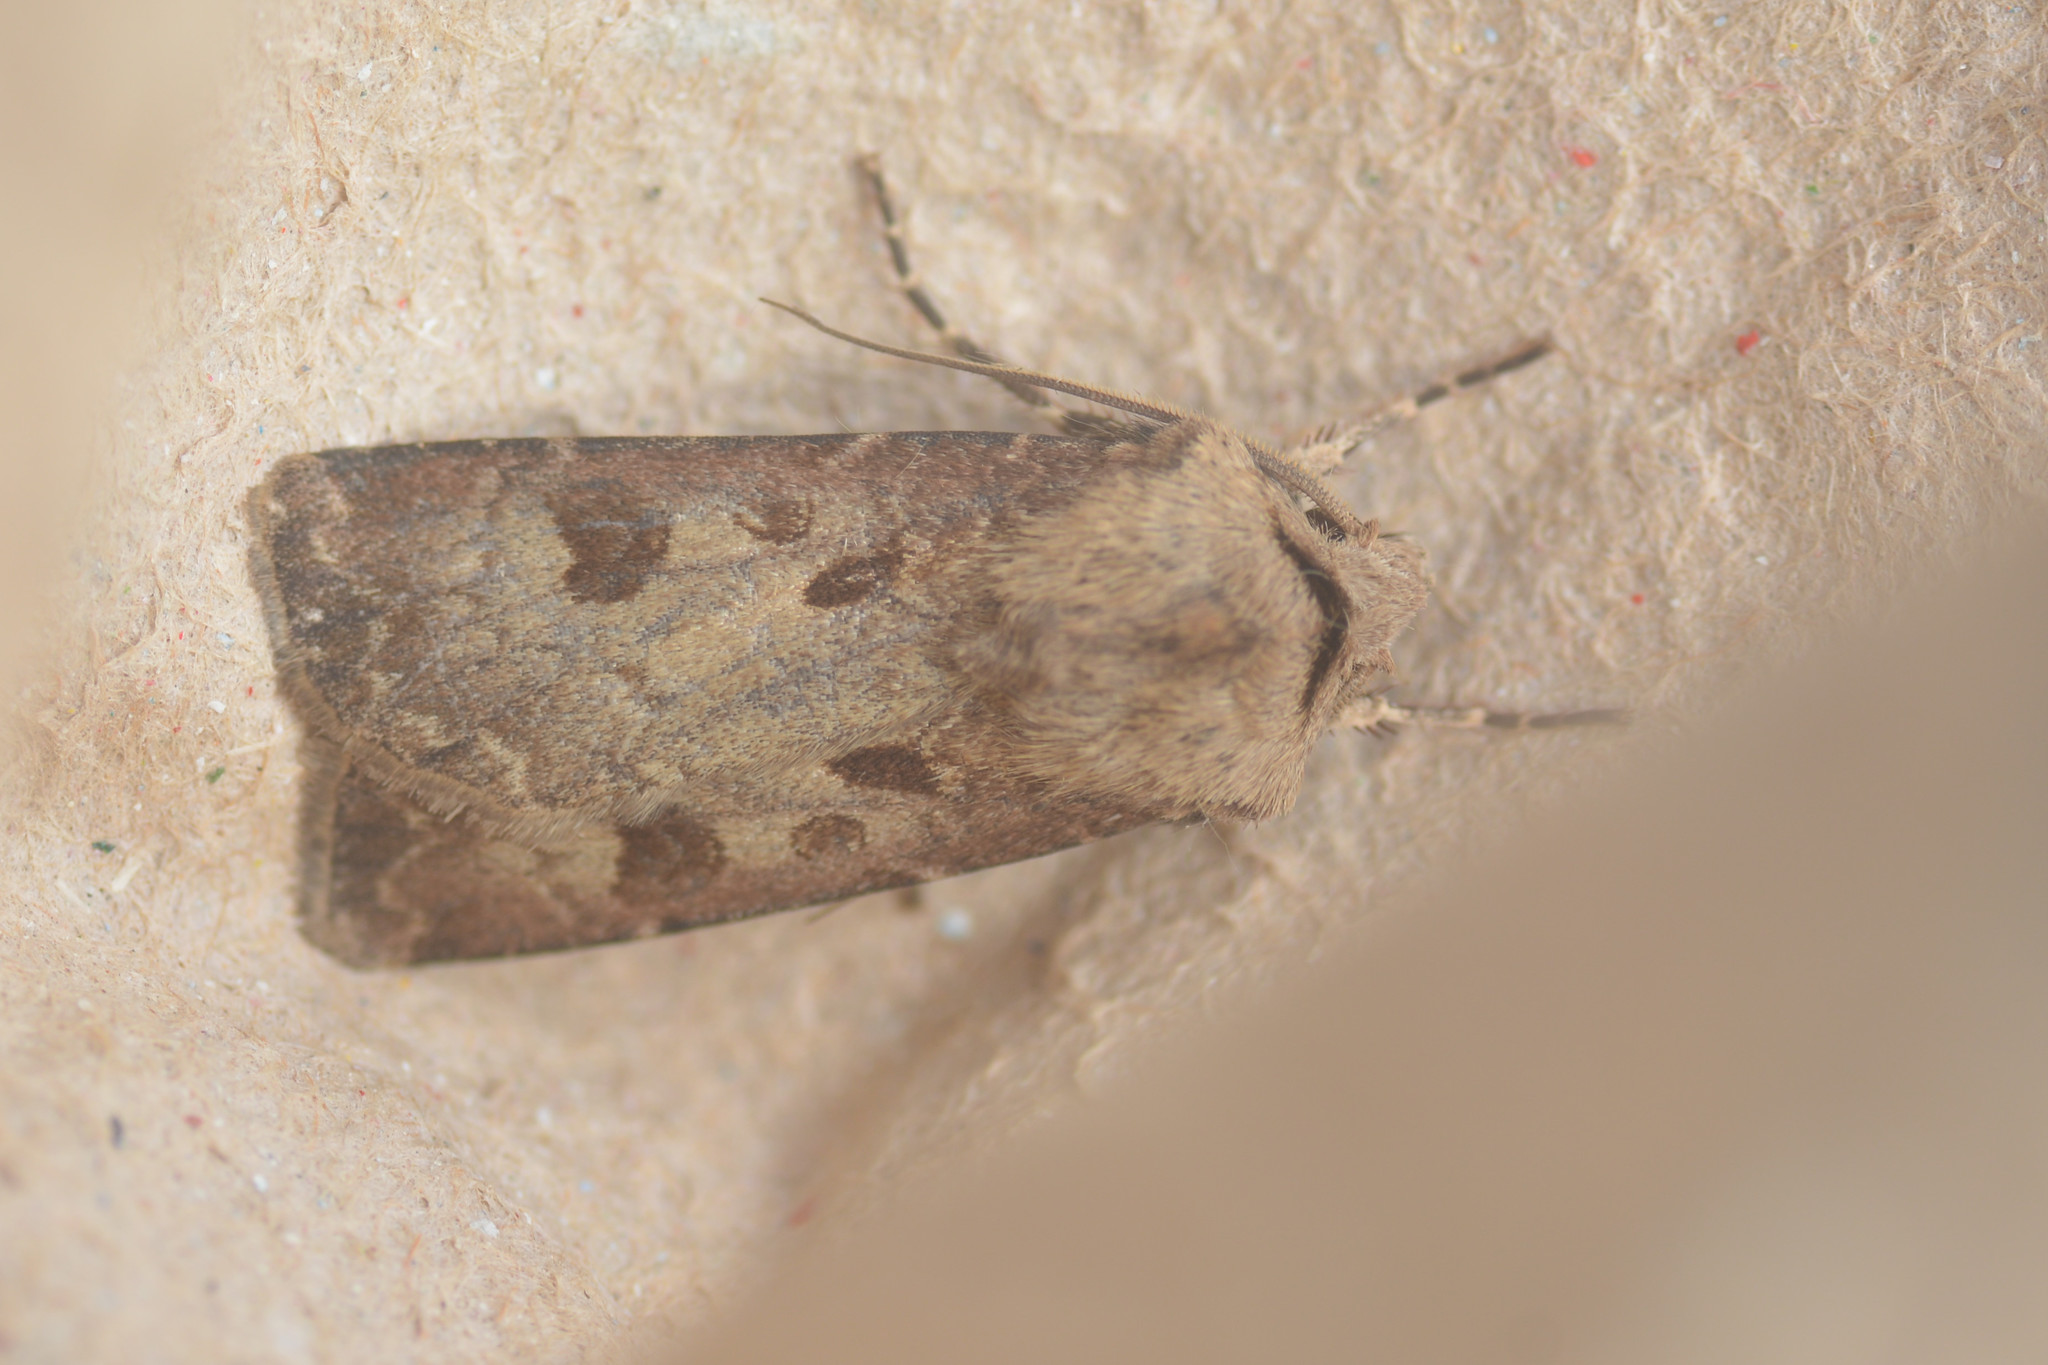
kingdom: Animalia
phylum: Arthropoda
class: Insecta
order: Lepidoptera
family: Noctuidae
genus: Agrotis
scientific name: Agrotis exclamationis
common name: Heart and dart
